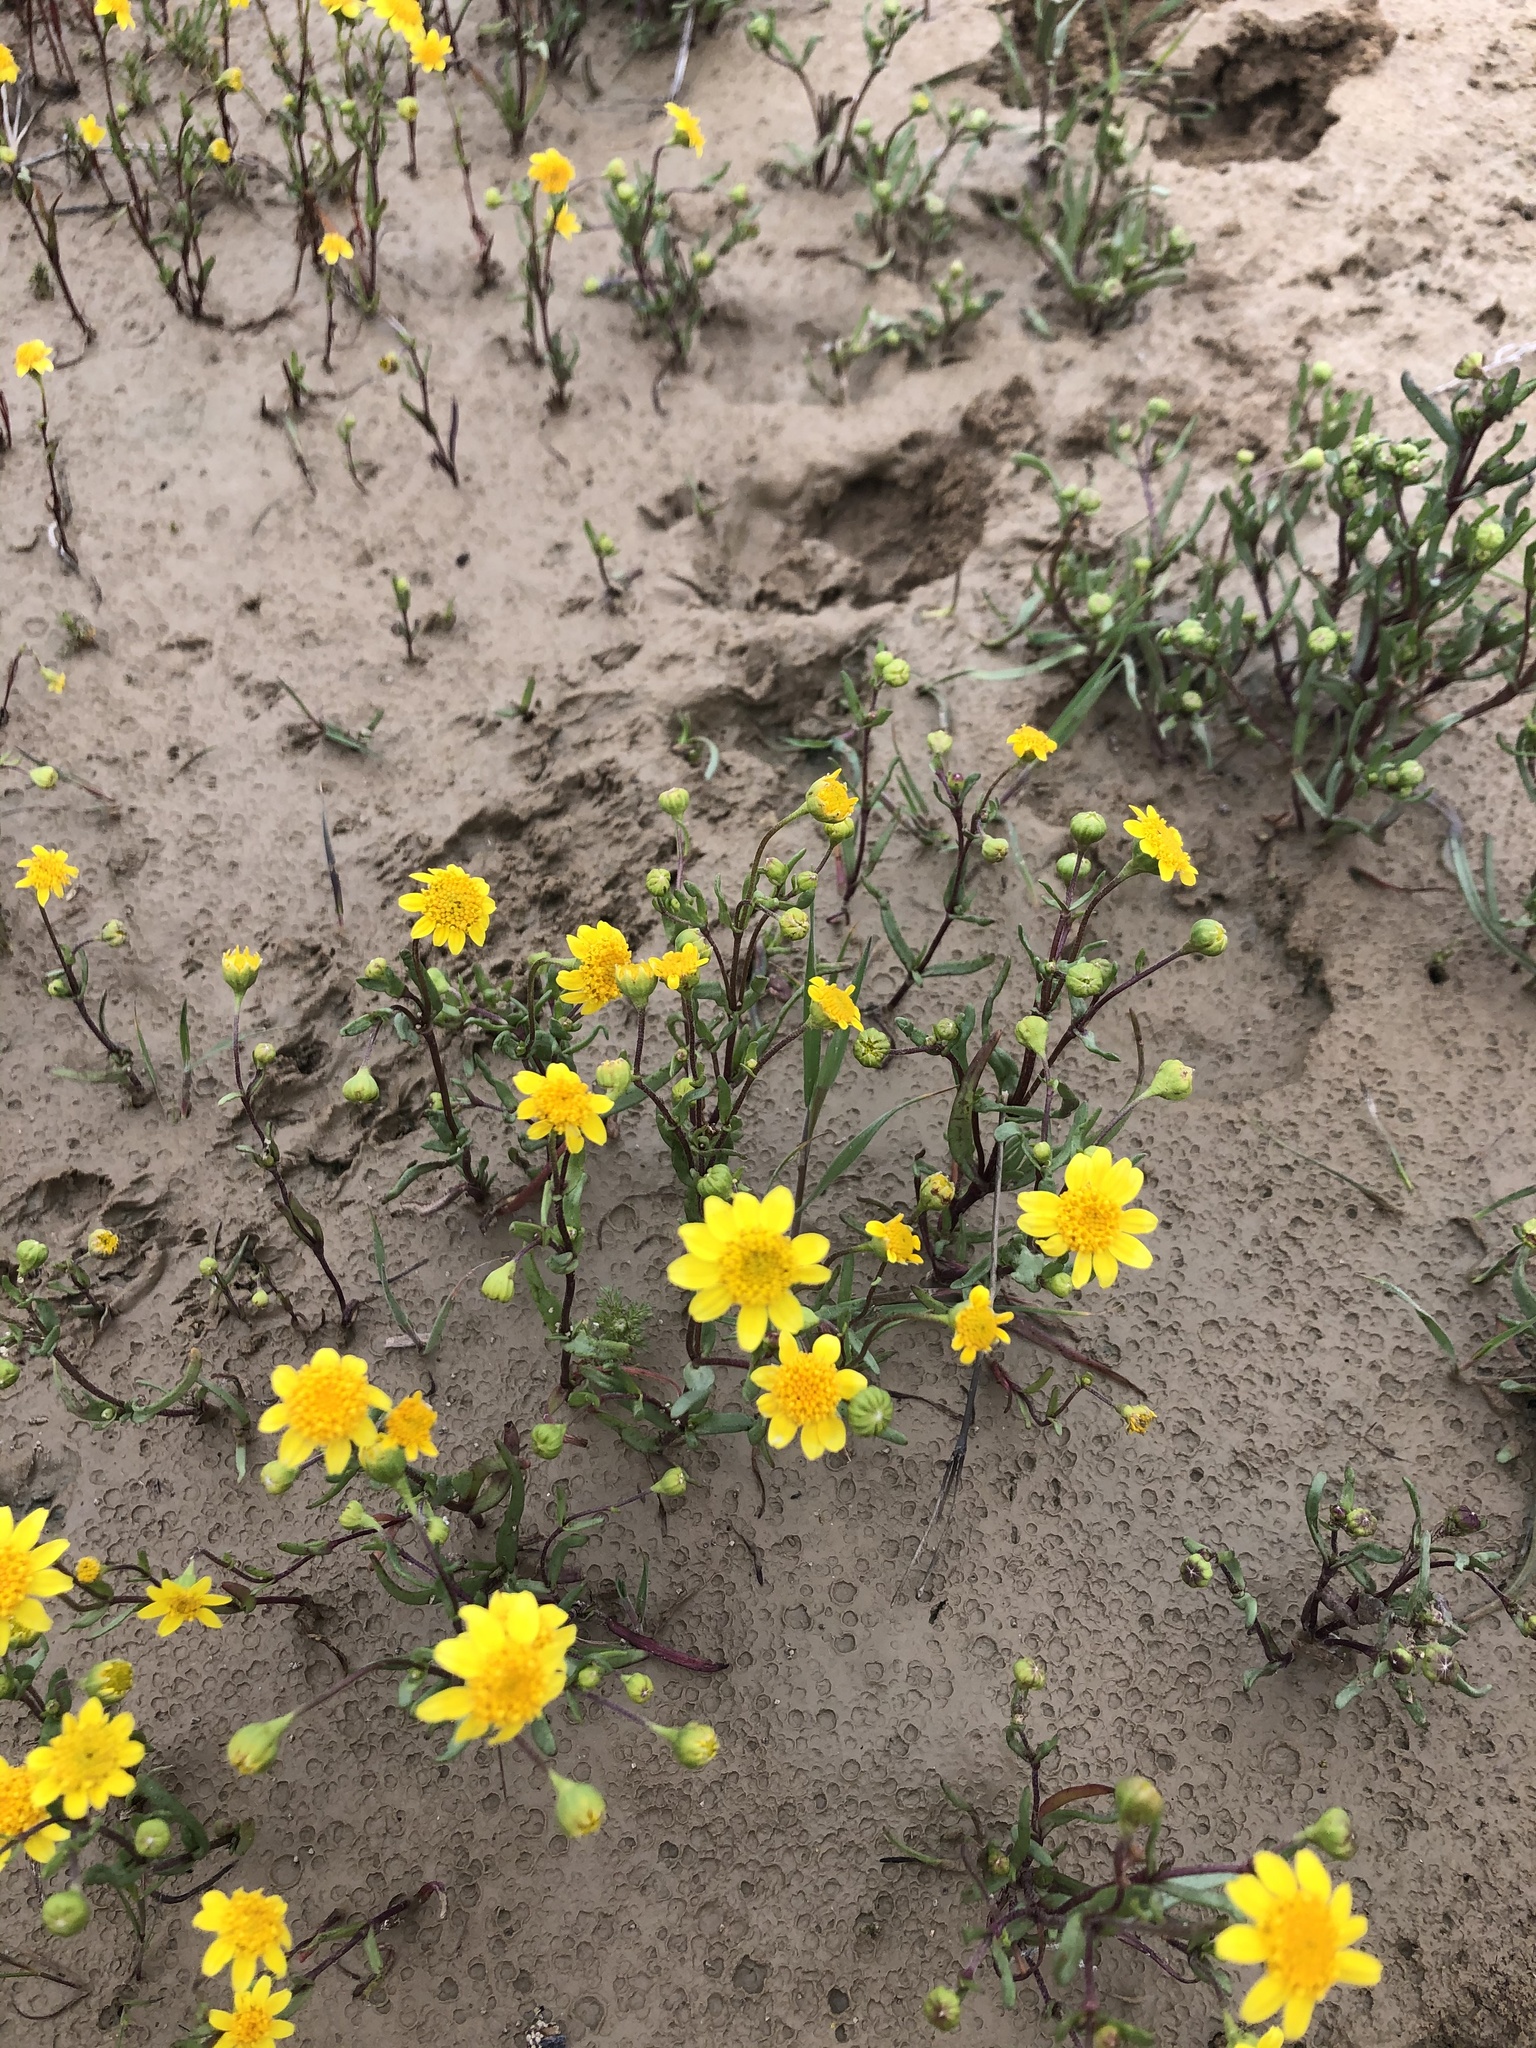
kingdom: Plantae
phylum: Tracheophyta
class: Magnoliopsida
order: Asterales
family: Asteraceae
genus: Lasthenia
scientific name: Lasthenia ferrisiae
